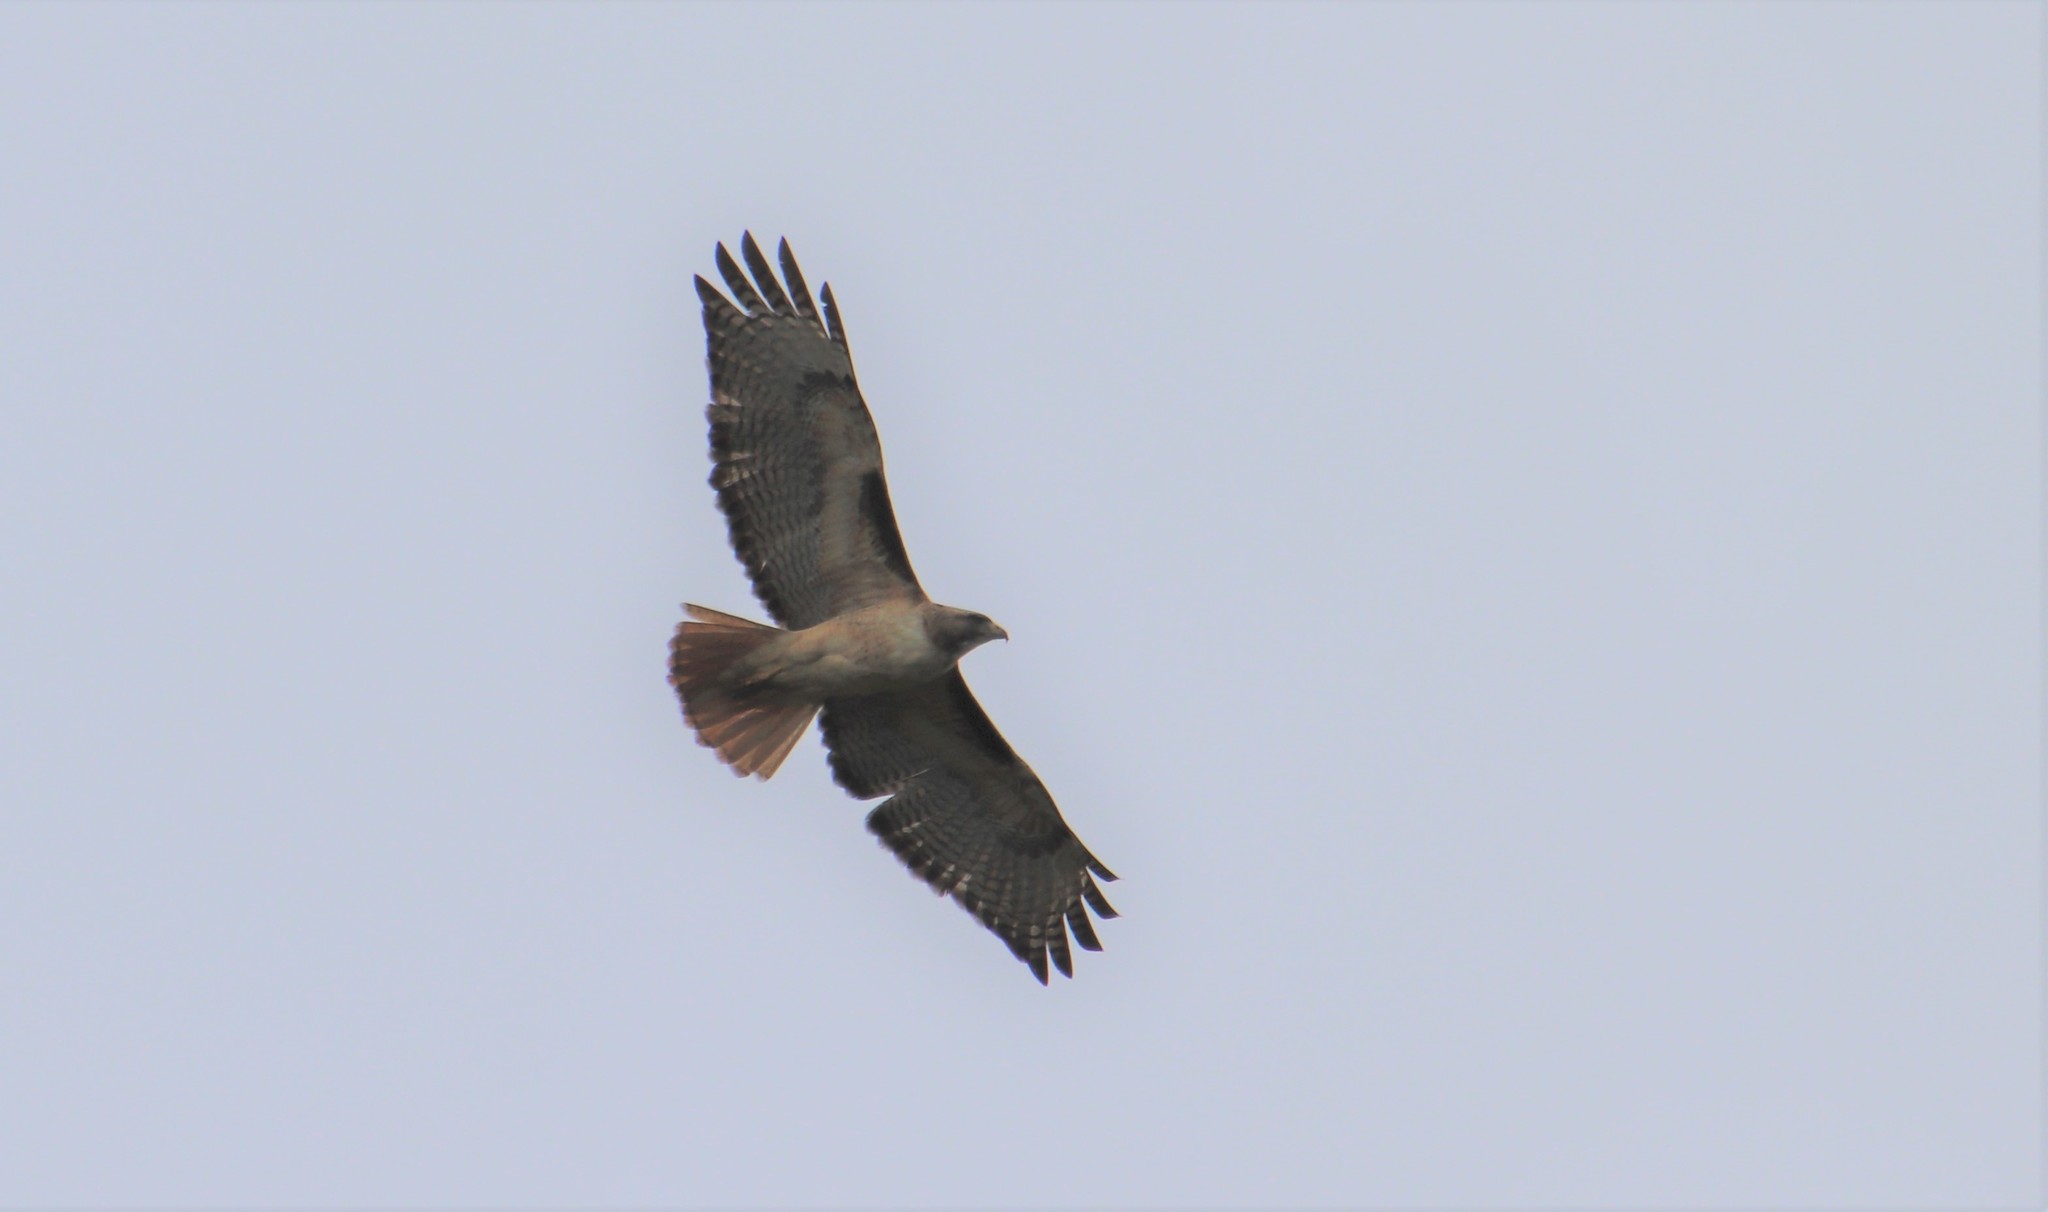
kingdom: Animalia
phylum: Chordata
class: Aves
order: Accipitriformes
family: Accipitridae
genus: Buteo
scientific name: Buteo jamaicensis
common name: Red-tailed hawk
